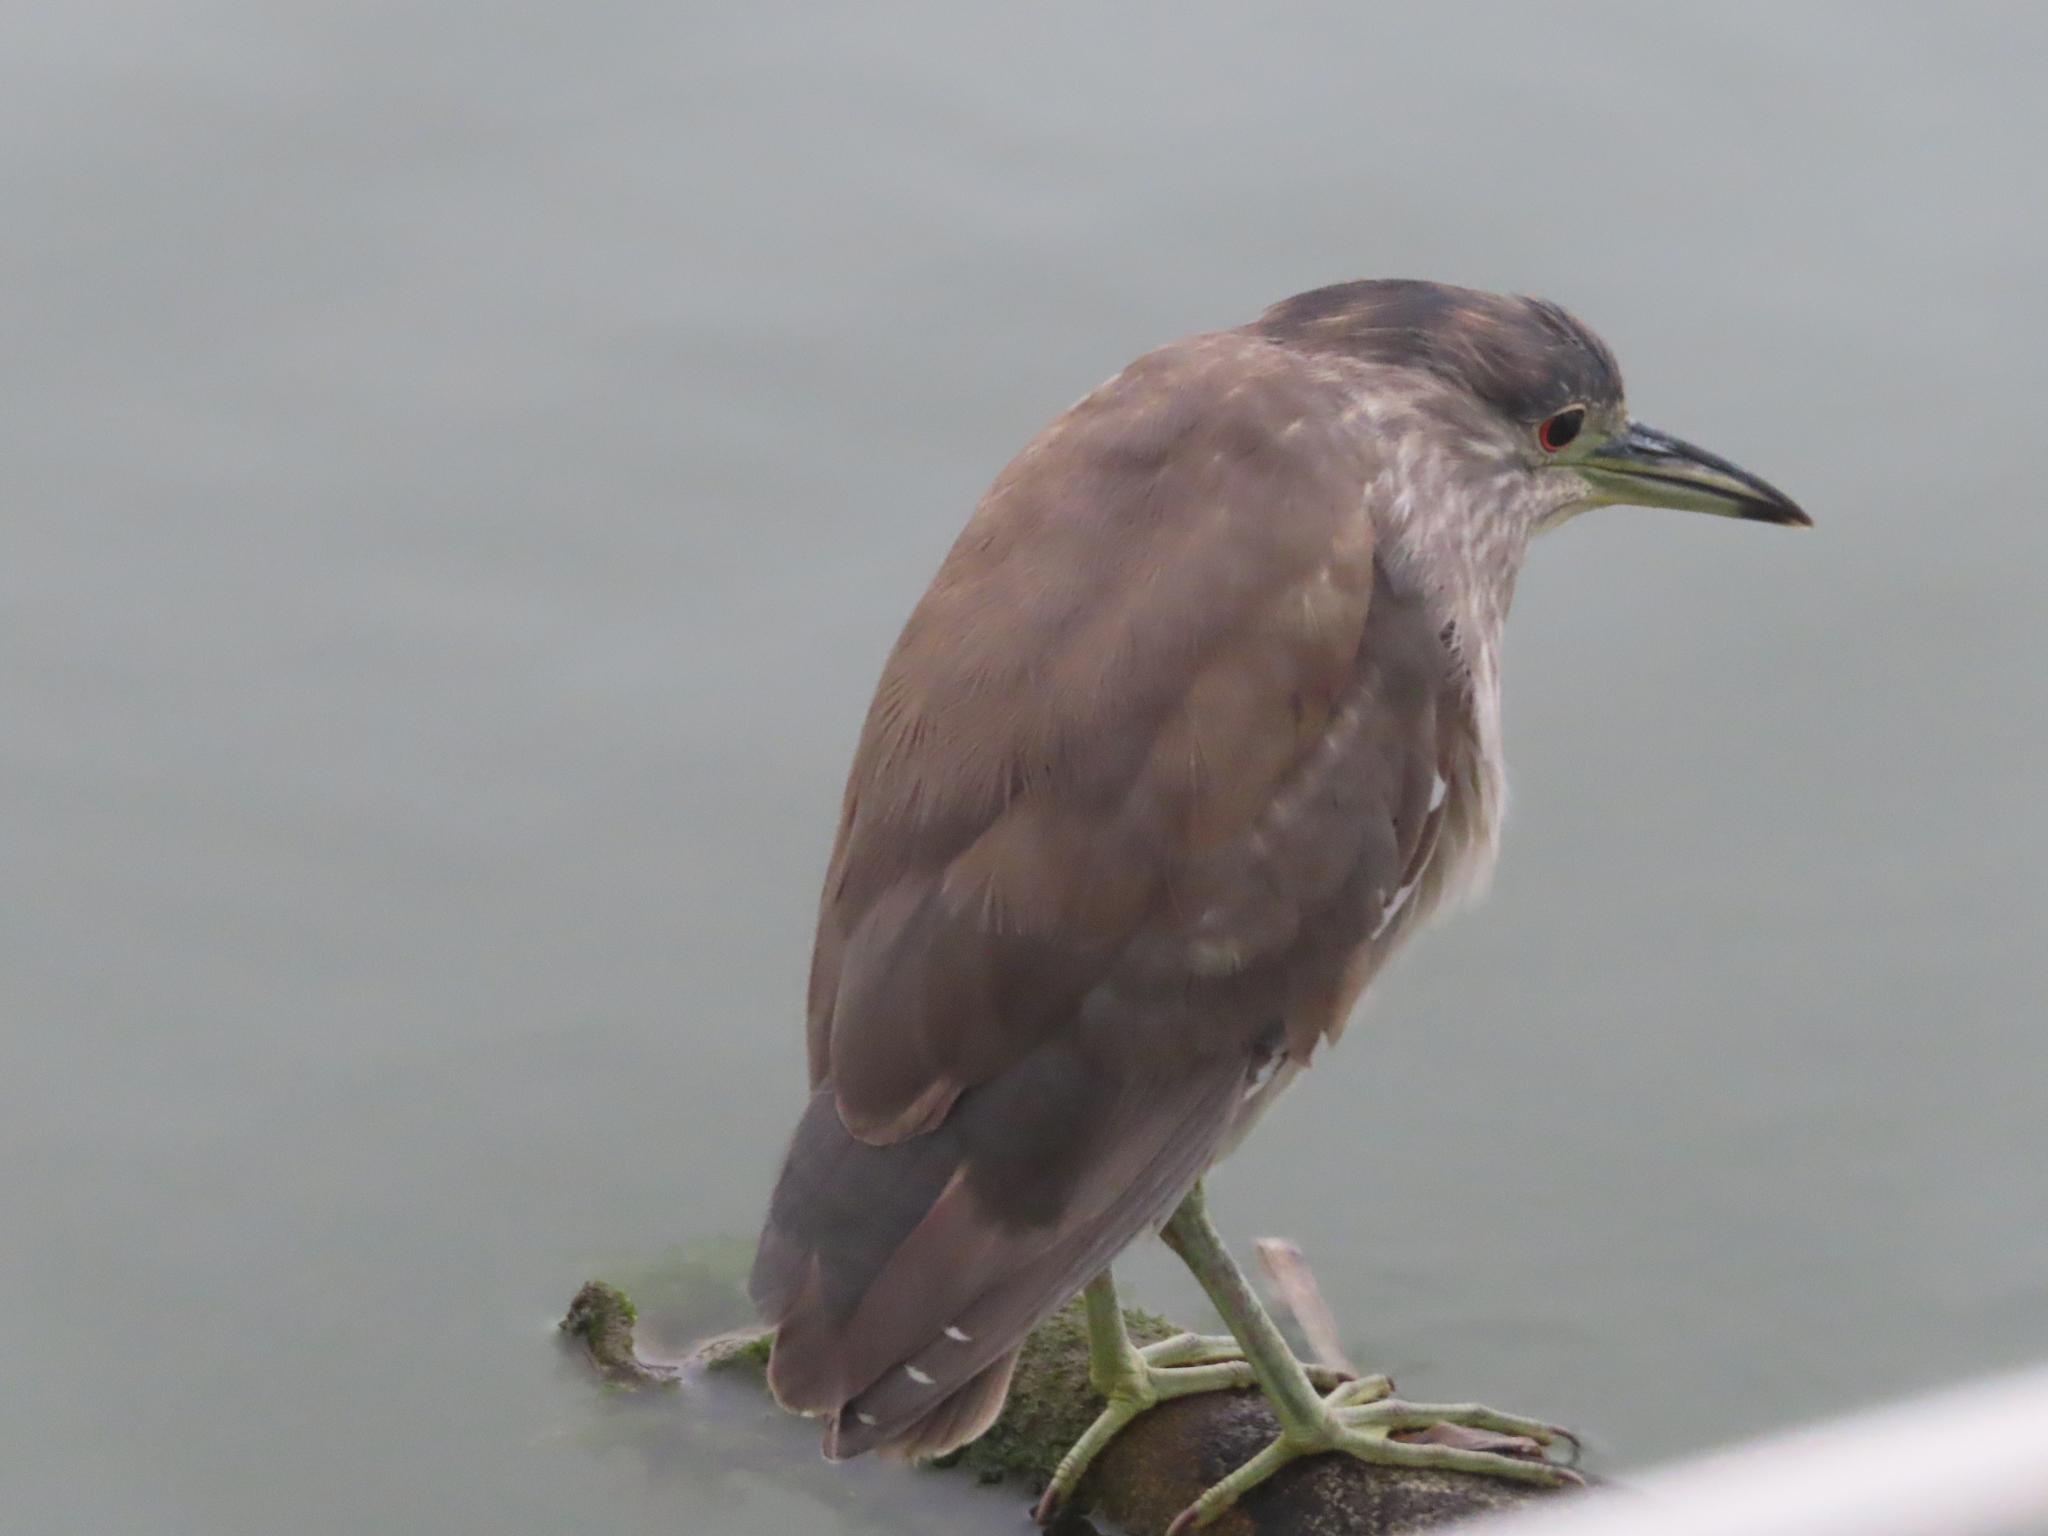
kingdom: Animalia
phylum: Chordata
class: Aves
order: Pelecaniformes
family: Ardeidae
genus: Nycticorax
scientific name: Nycticorax nycticorax
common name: Black-crowned night heron
